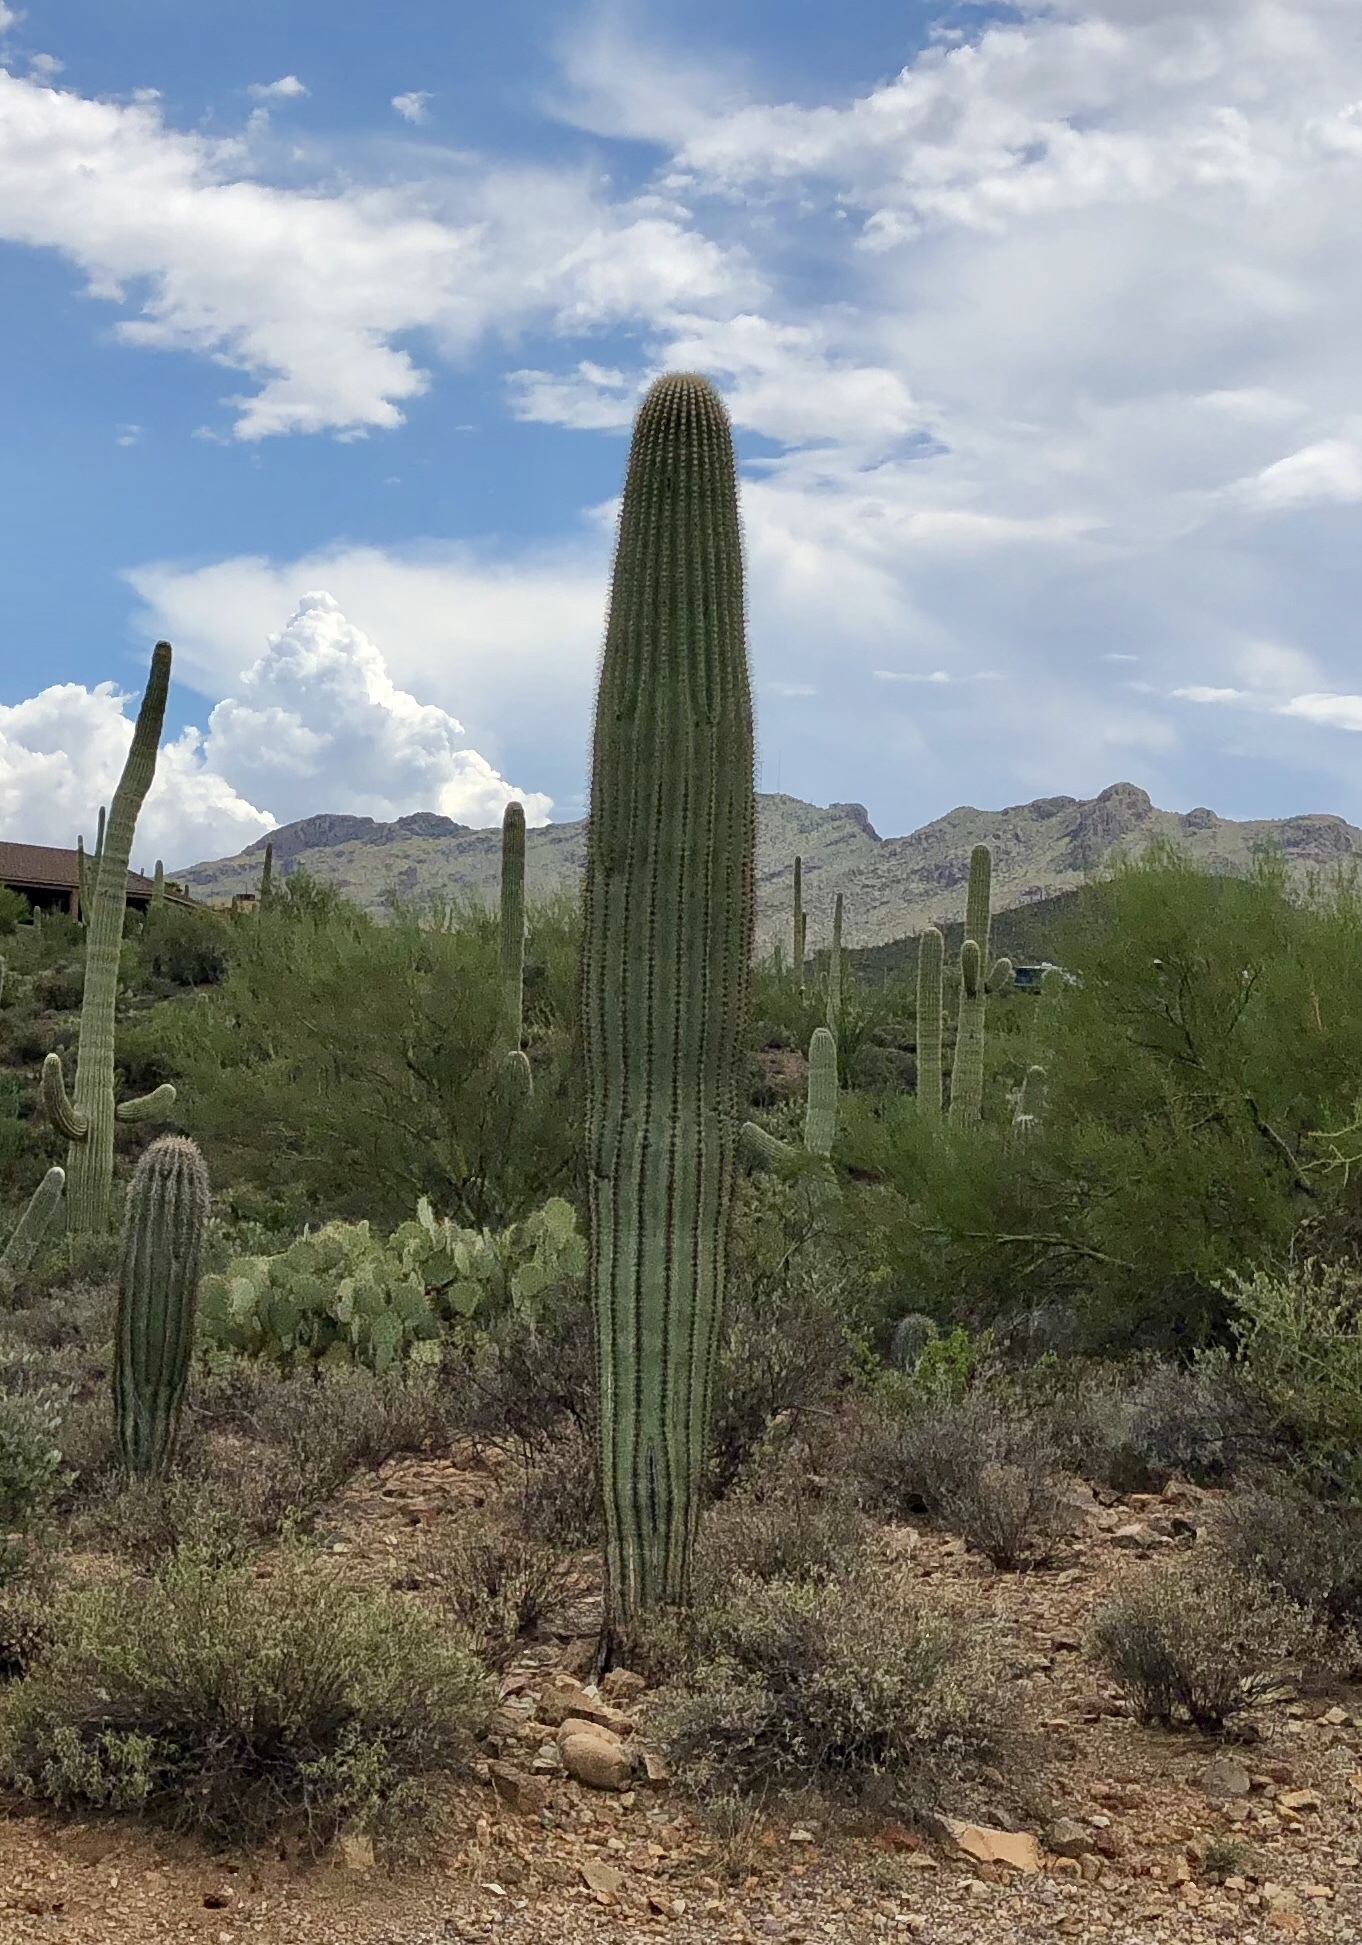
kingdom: Plantae
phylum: Tracheophyta
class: Magnoliopsida
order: Caryophyllales
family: Cactaceae
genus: Carnegiea
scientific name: Carnegiea gigantea
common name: Saguaro
